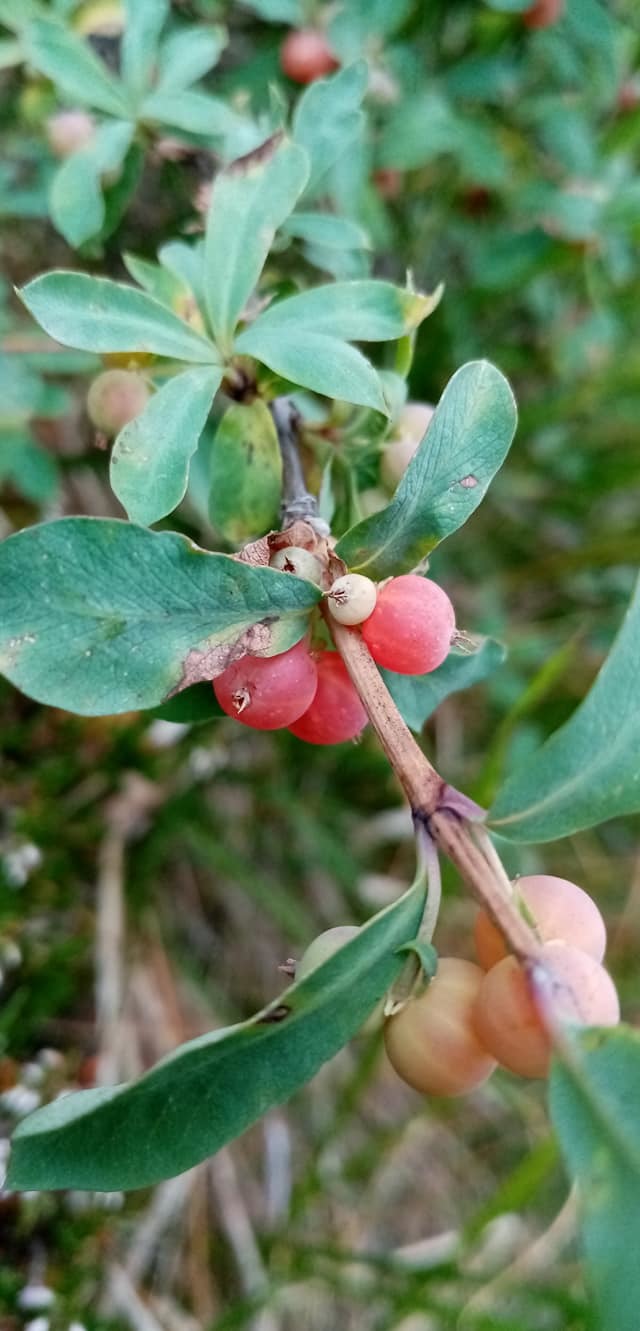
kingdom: Plantae
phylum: Tracheophyta
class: Magnoliopsida
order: Dipsacales
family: Caprifoliaceae
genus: Lonicera
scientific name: Lonicera pyrenaica
